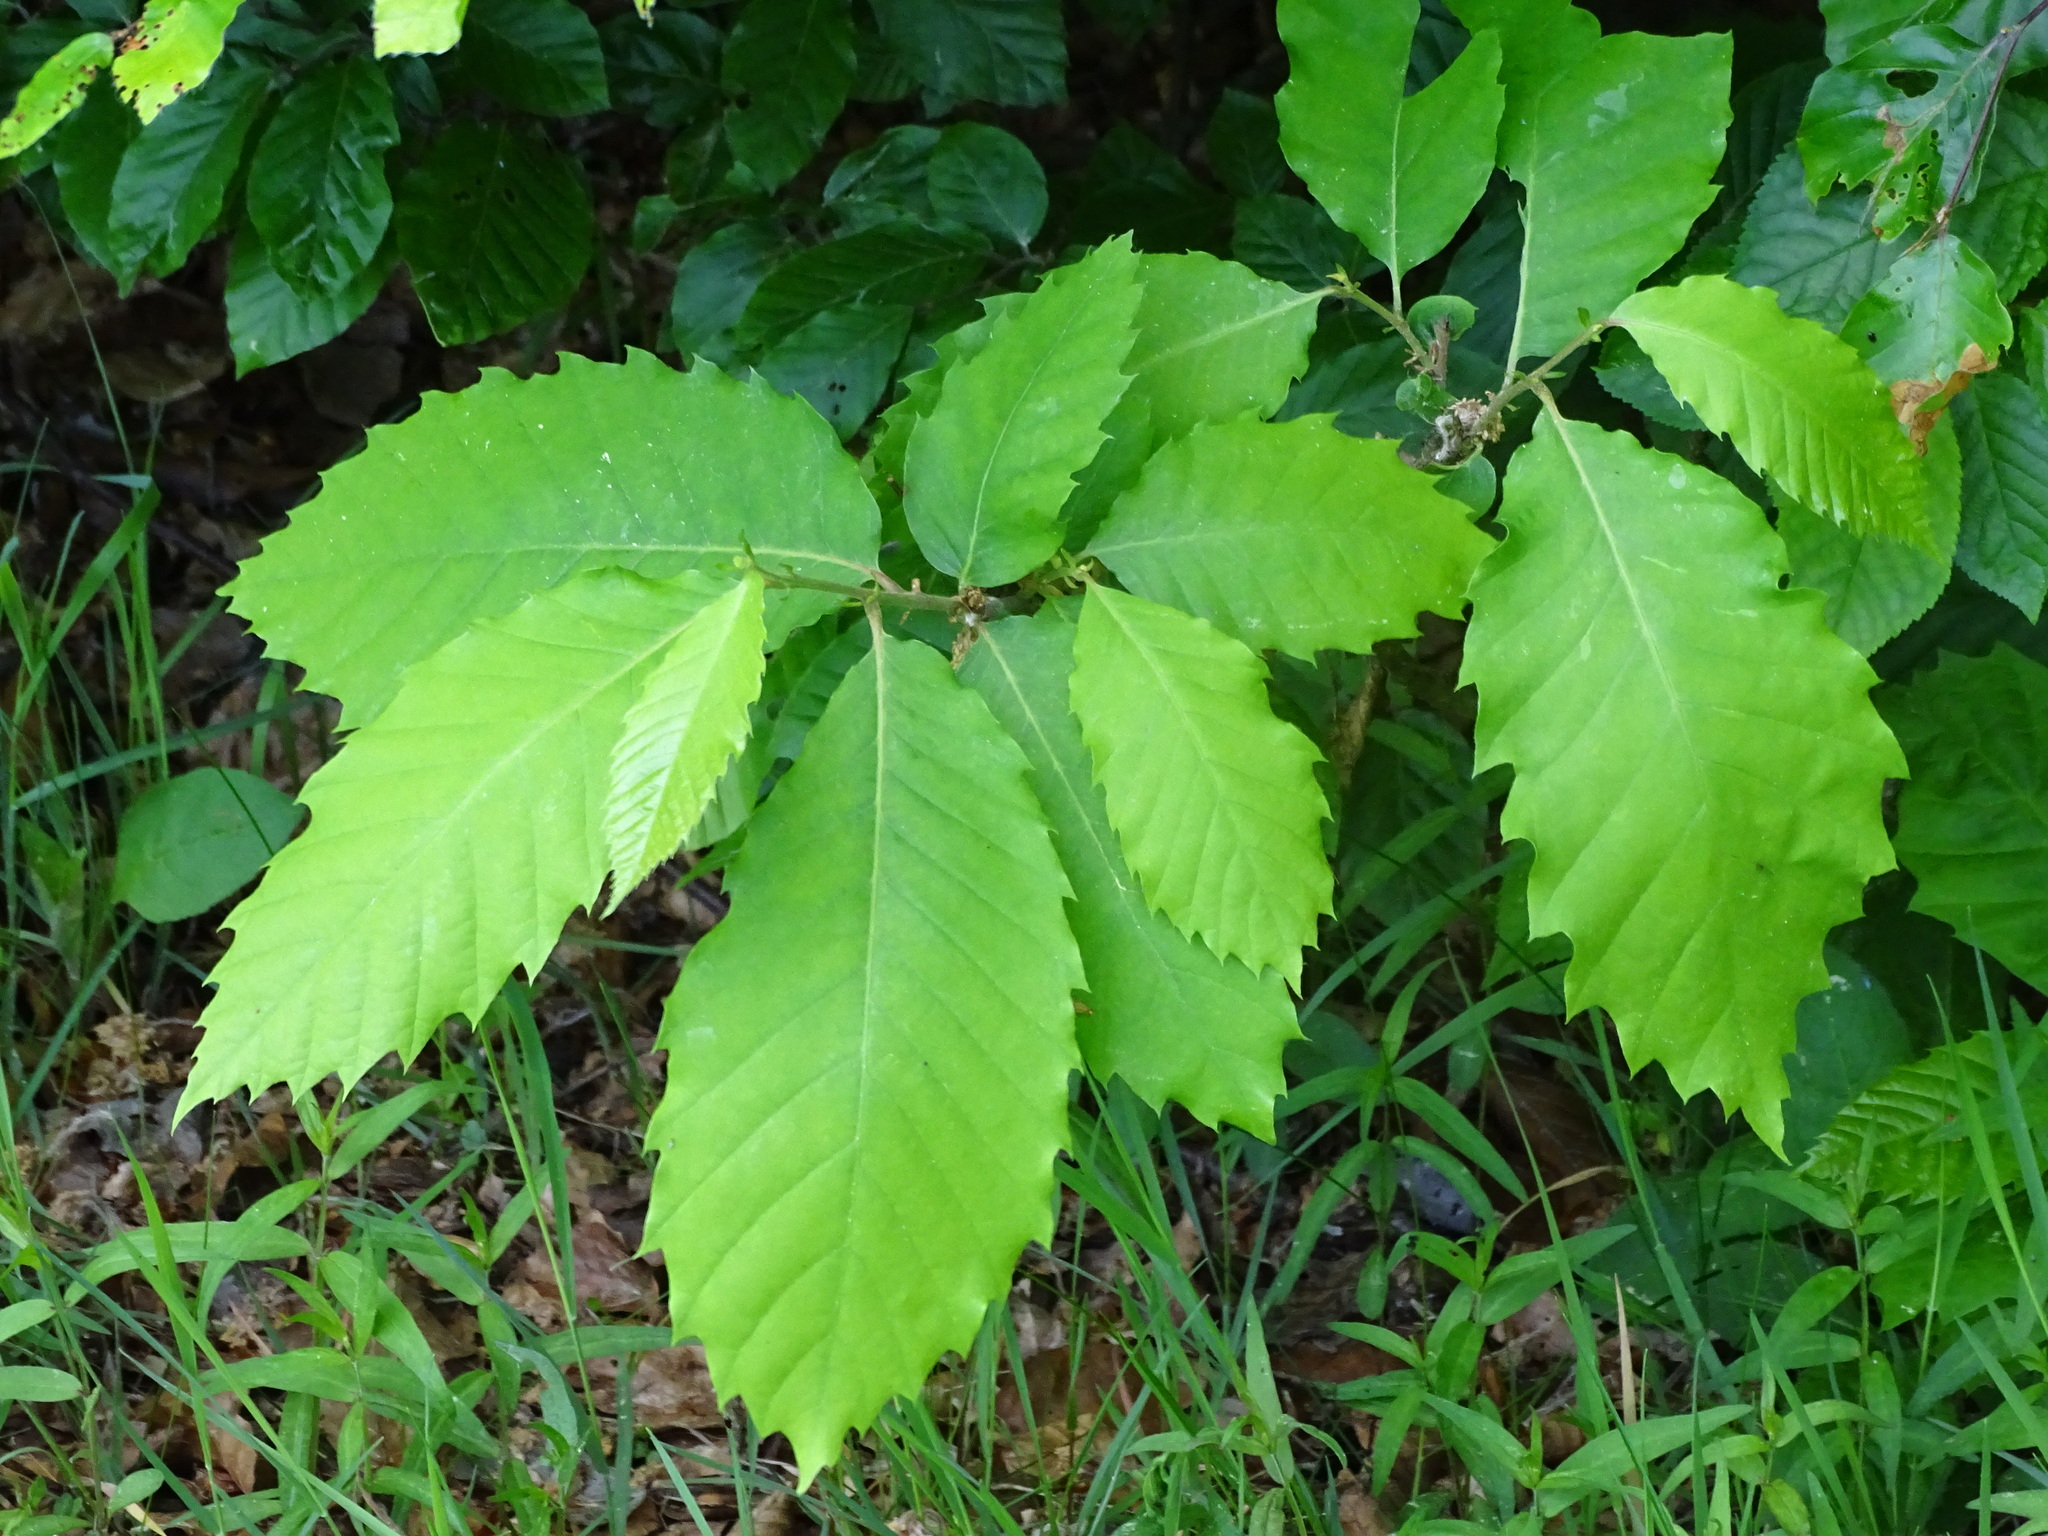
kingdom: Plantae
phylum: Tracheophyta
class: Magnoliopsida
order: Fagales
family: Fagaceae
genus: Castanea
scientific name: Castanea sativa
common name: Sweet chestnut
